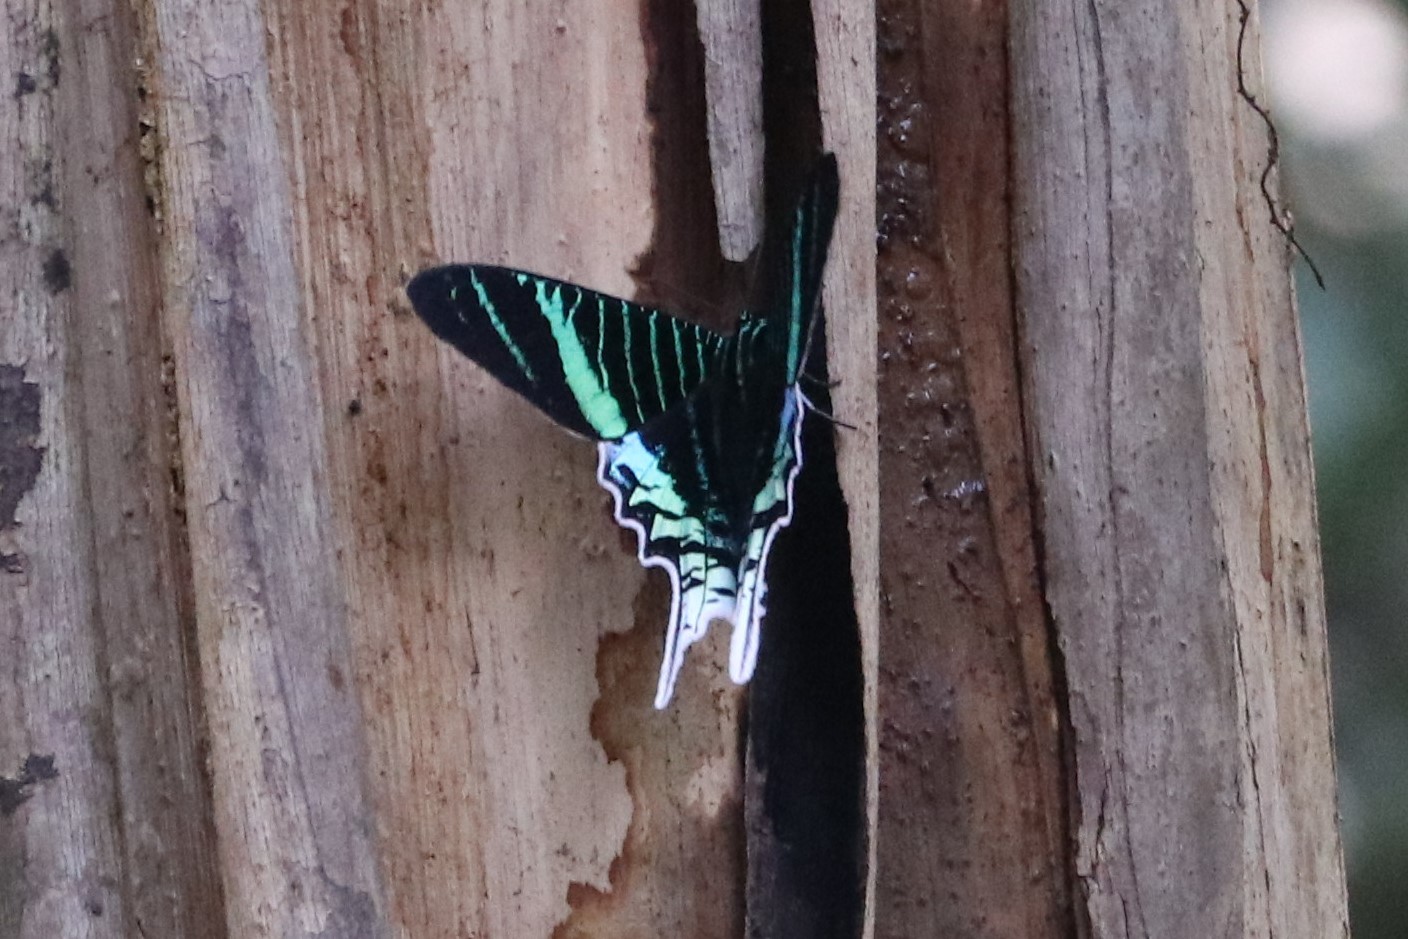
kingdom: Animalia
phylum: Arthropoda
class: Insecta
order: Lepidoptera
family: Uraniidae
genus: Urania
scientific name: Urania leilus
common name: Peacock moth
